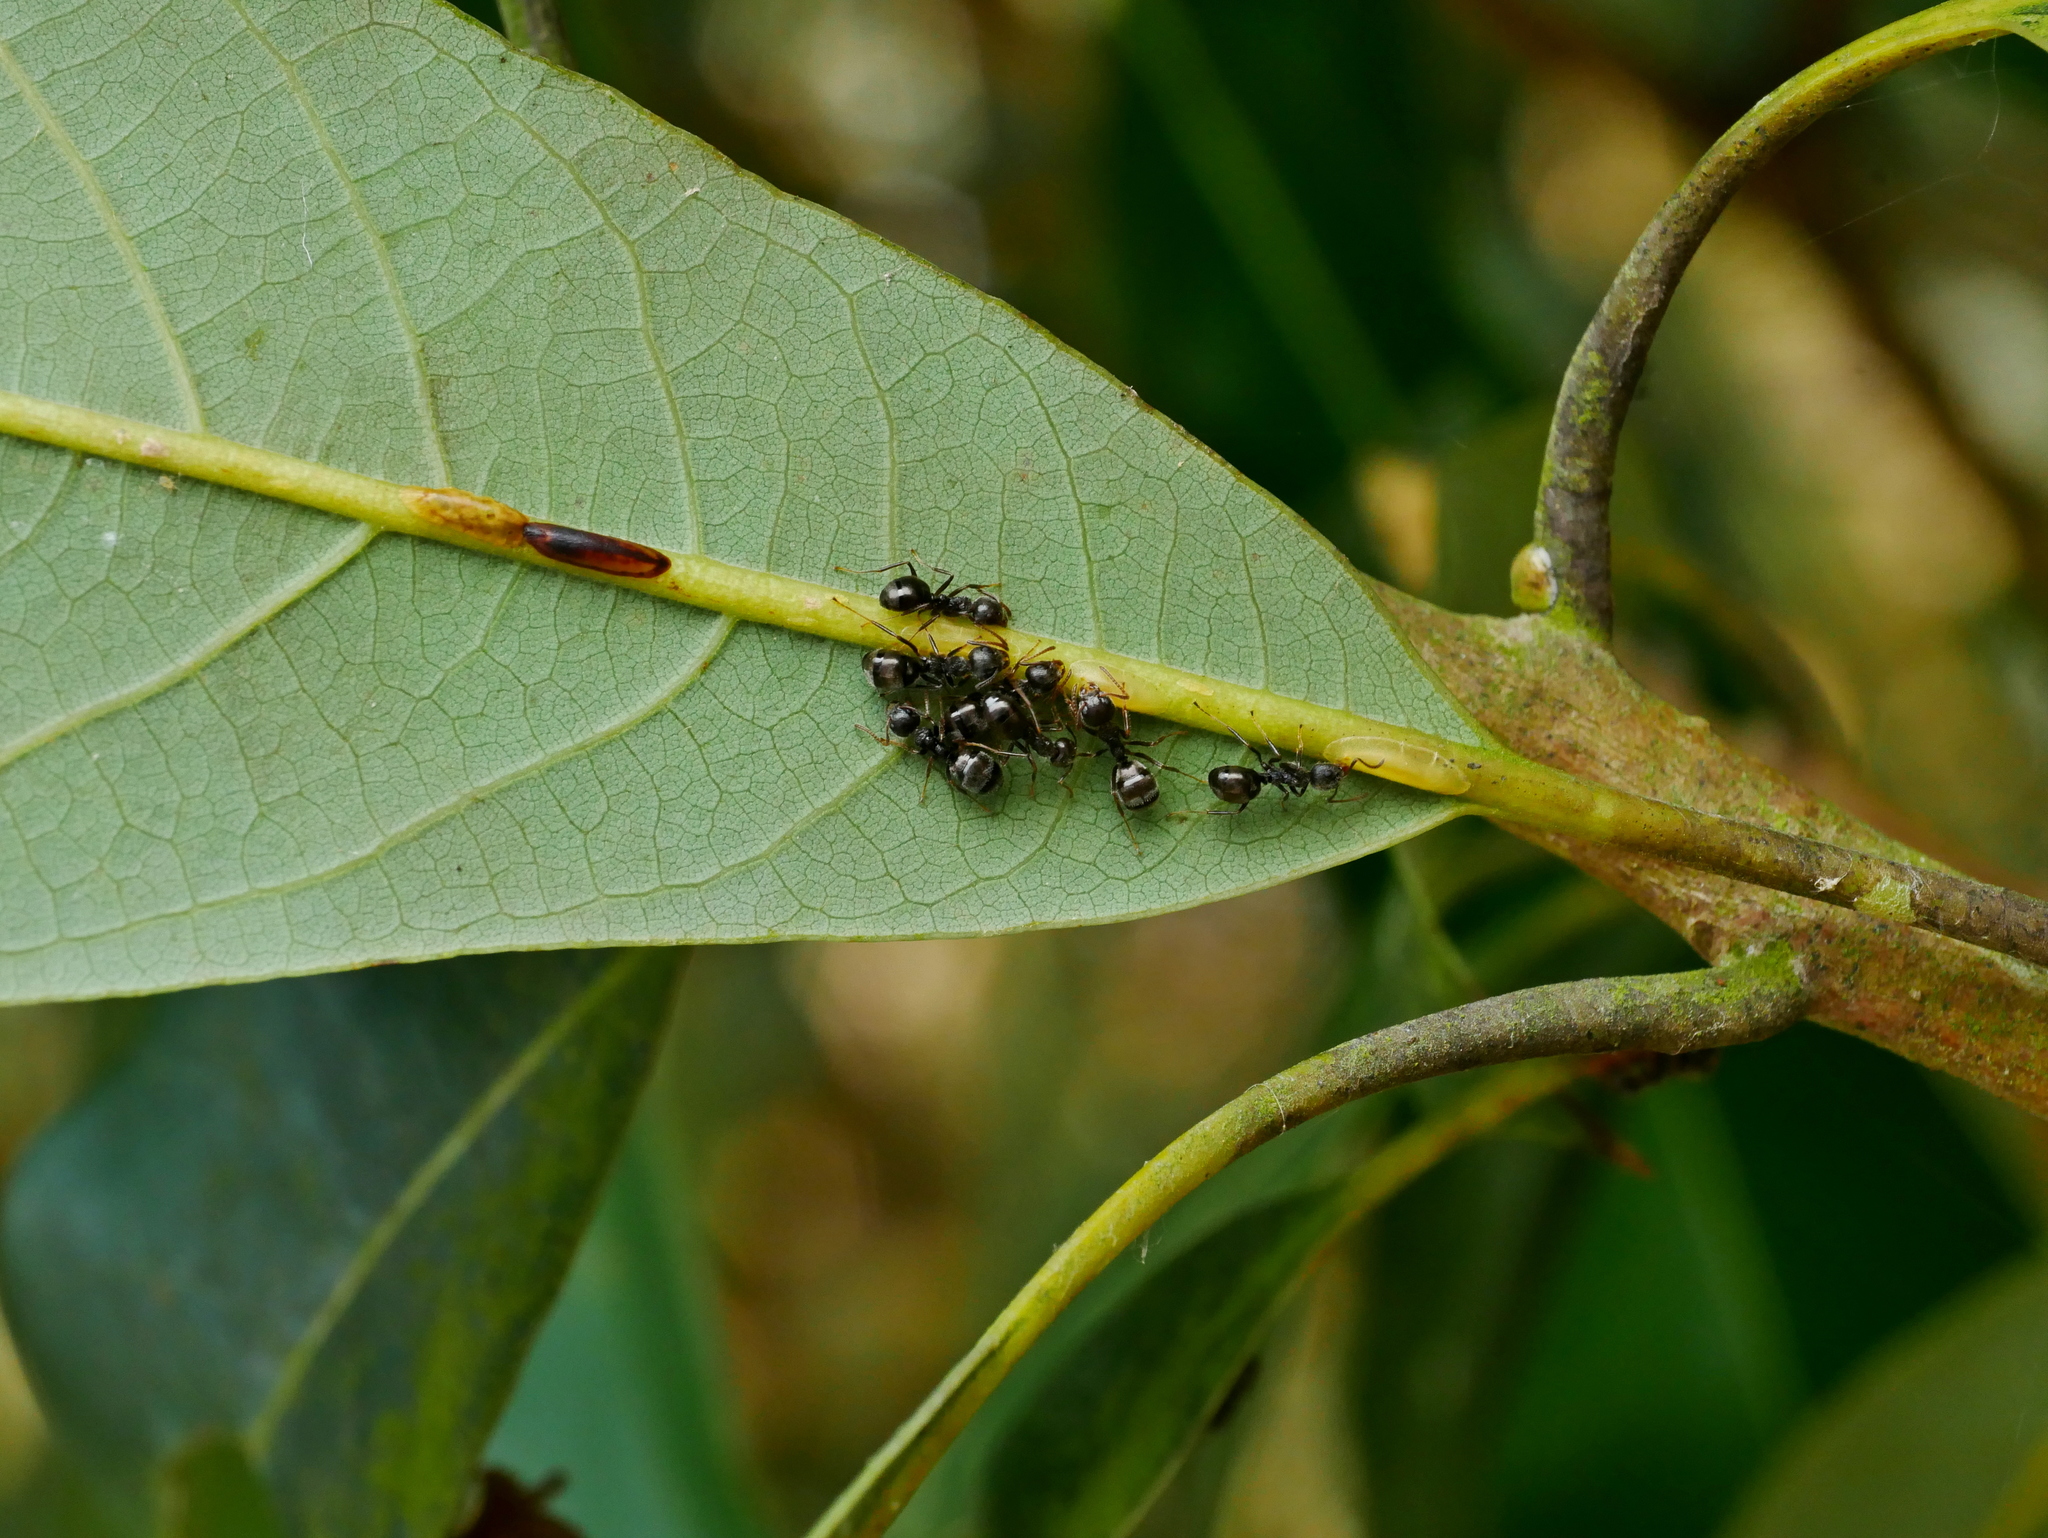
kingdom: Animalia
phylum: Arthropoda
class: Insecta
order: Hymenoptera
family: Formicidae
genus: Dolichoderus
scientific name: Dolichoderus thoracicus
